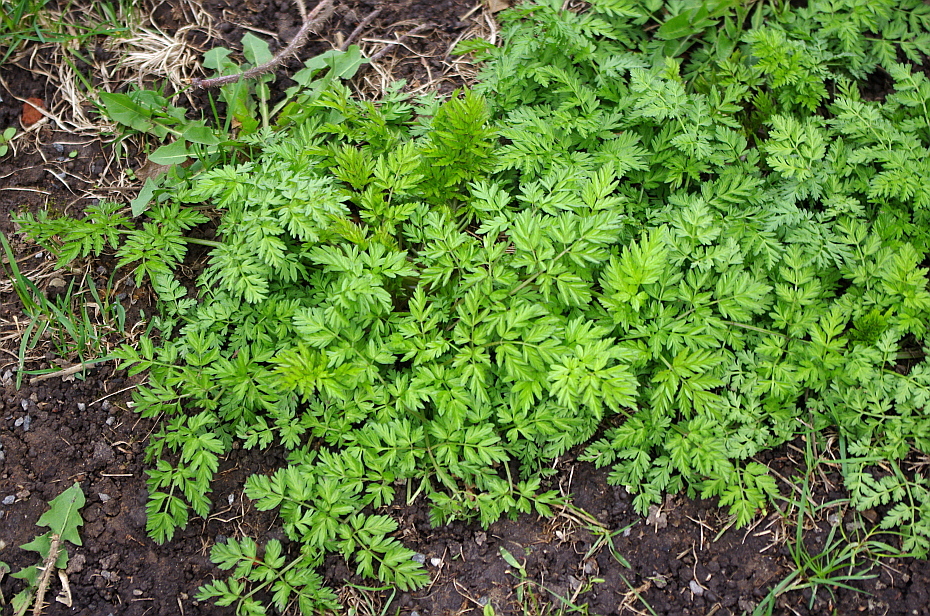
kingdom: Plantae
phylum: Tracheophyta
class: Magnoliopsida
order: Apiales
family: Apiaceae
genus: Anthriscus
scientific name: Anthriscus sylvestris
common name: Cow parsley
